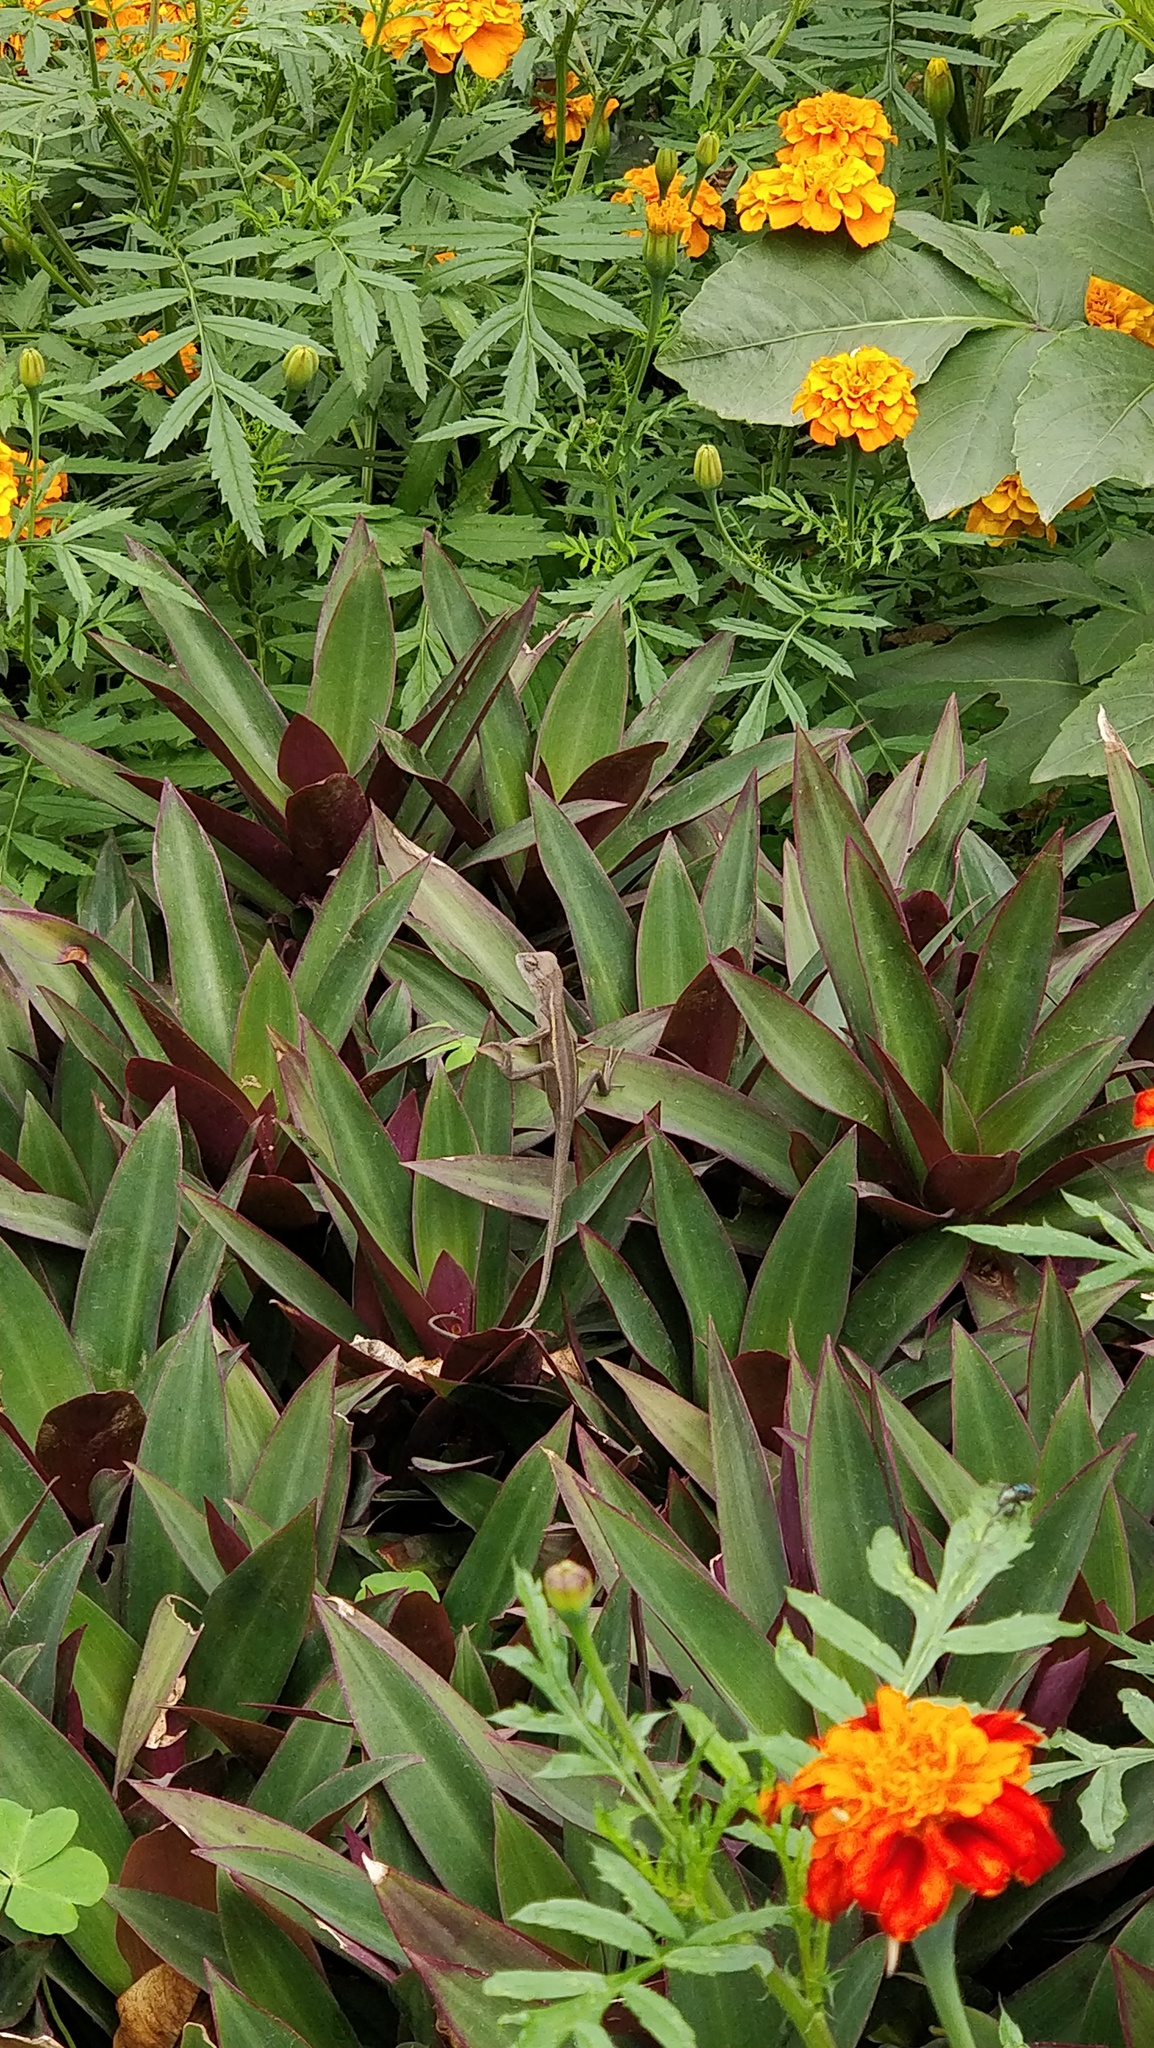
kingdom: Animalia
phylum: Chordata
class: Squamata
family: Agamidae
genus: Calotes
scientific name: Calotes versicolor
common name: Oriental garden lizard
